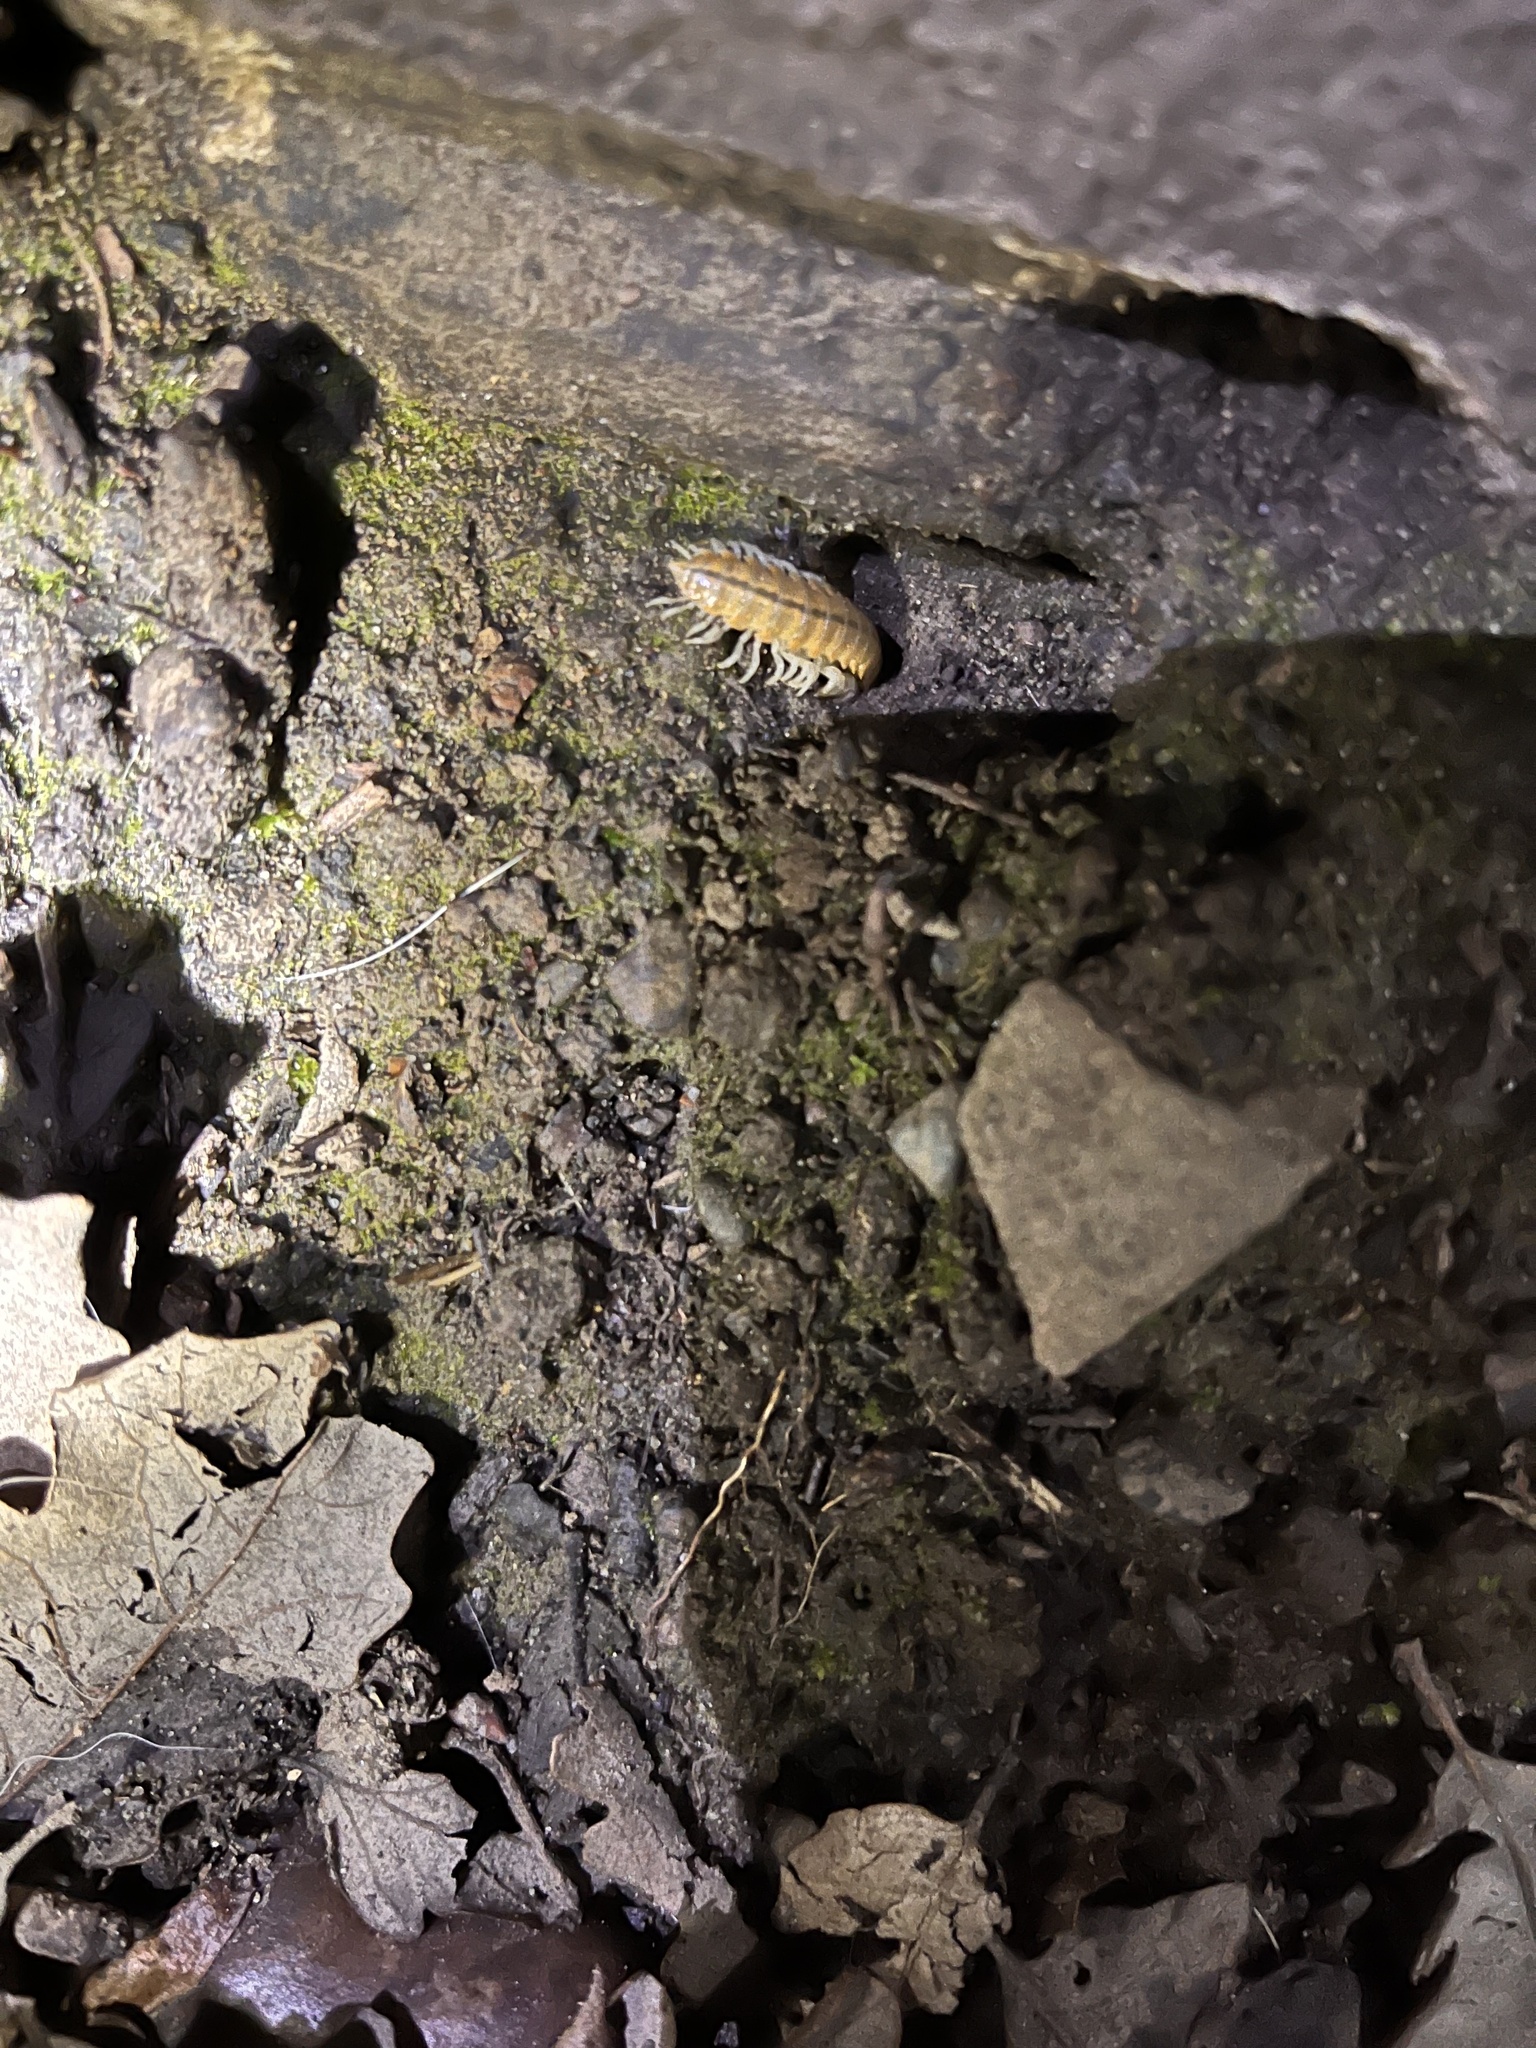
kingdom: Animalia
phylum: Arthropoda
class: Diplopoda
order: Polydesmida
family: Xystodesmidae
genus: Xystocheir
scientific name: Xystocheir dissecta
